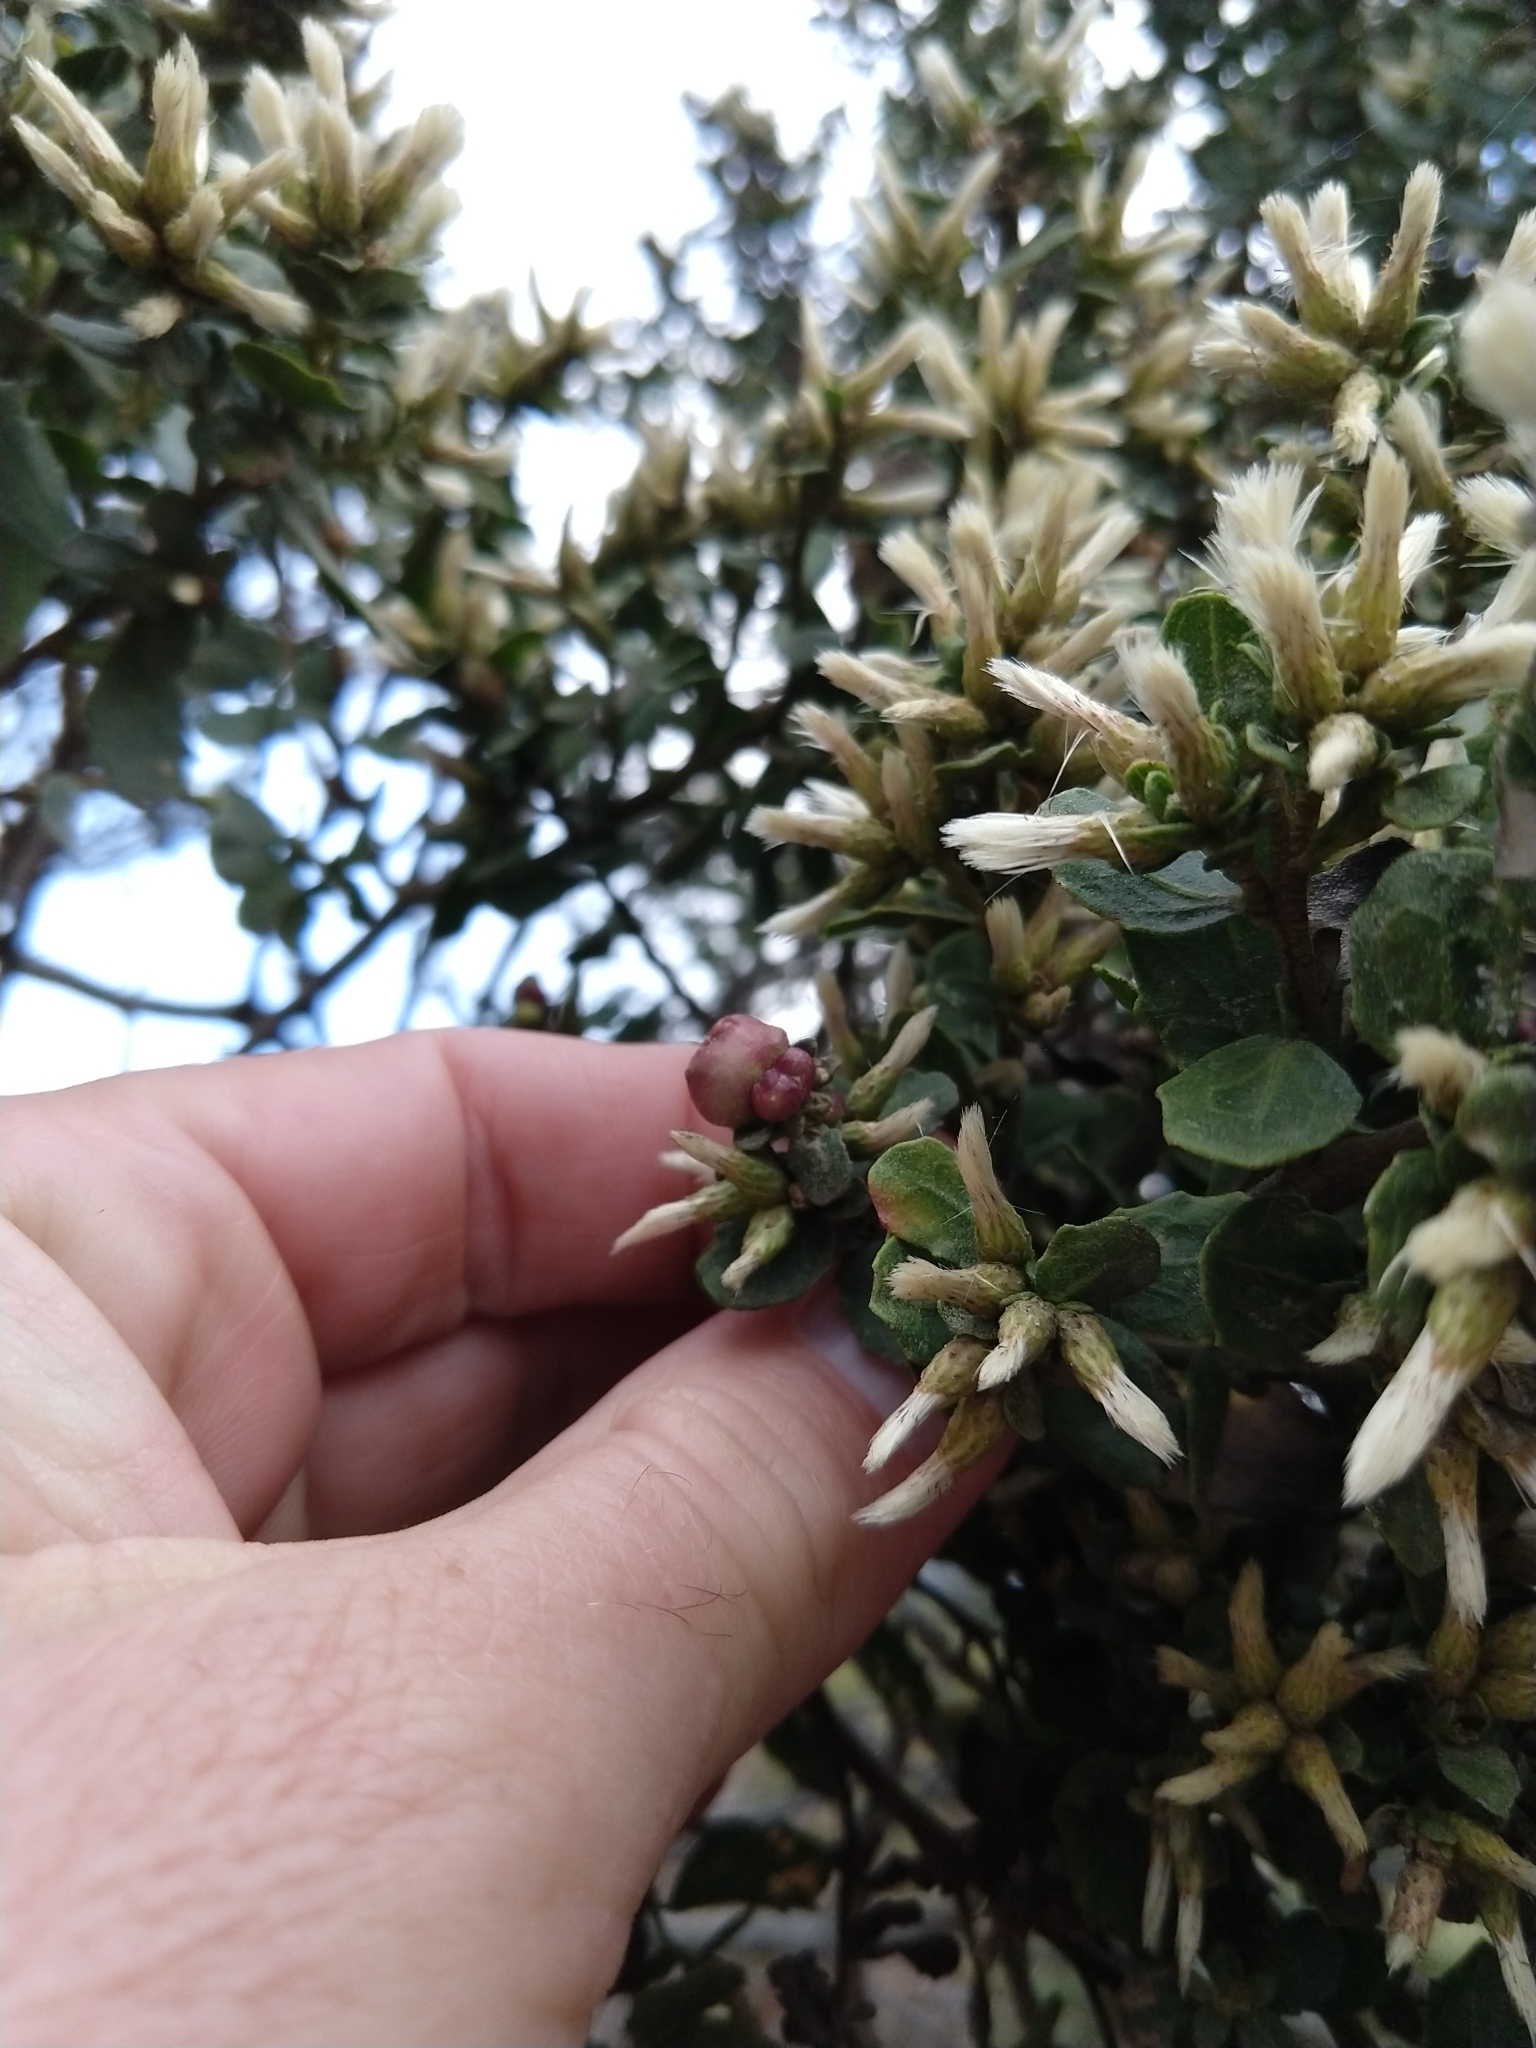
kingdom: Animalia
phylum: Arthropoda
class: Insecta
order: Diptera
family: Cecidomyiidae
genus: Rhopalomyia
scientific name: Rhopalomyia californica
